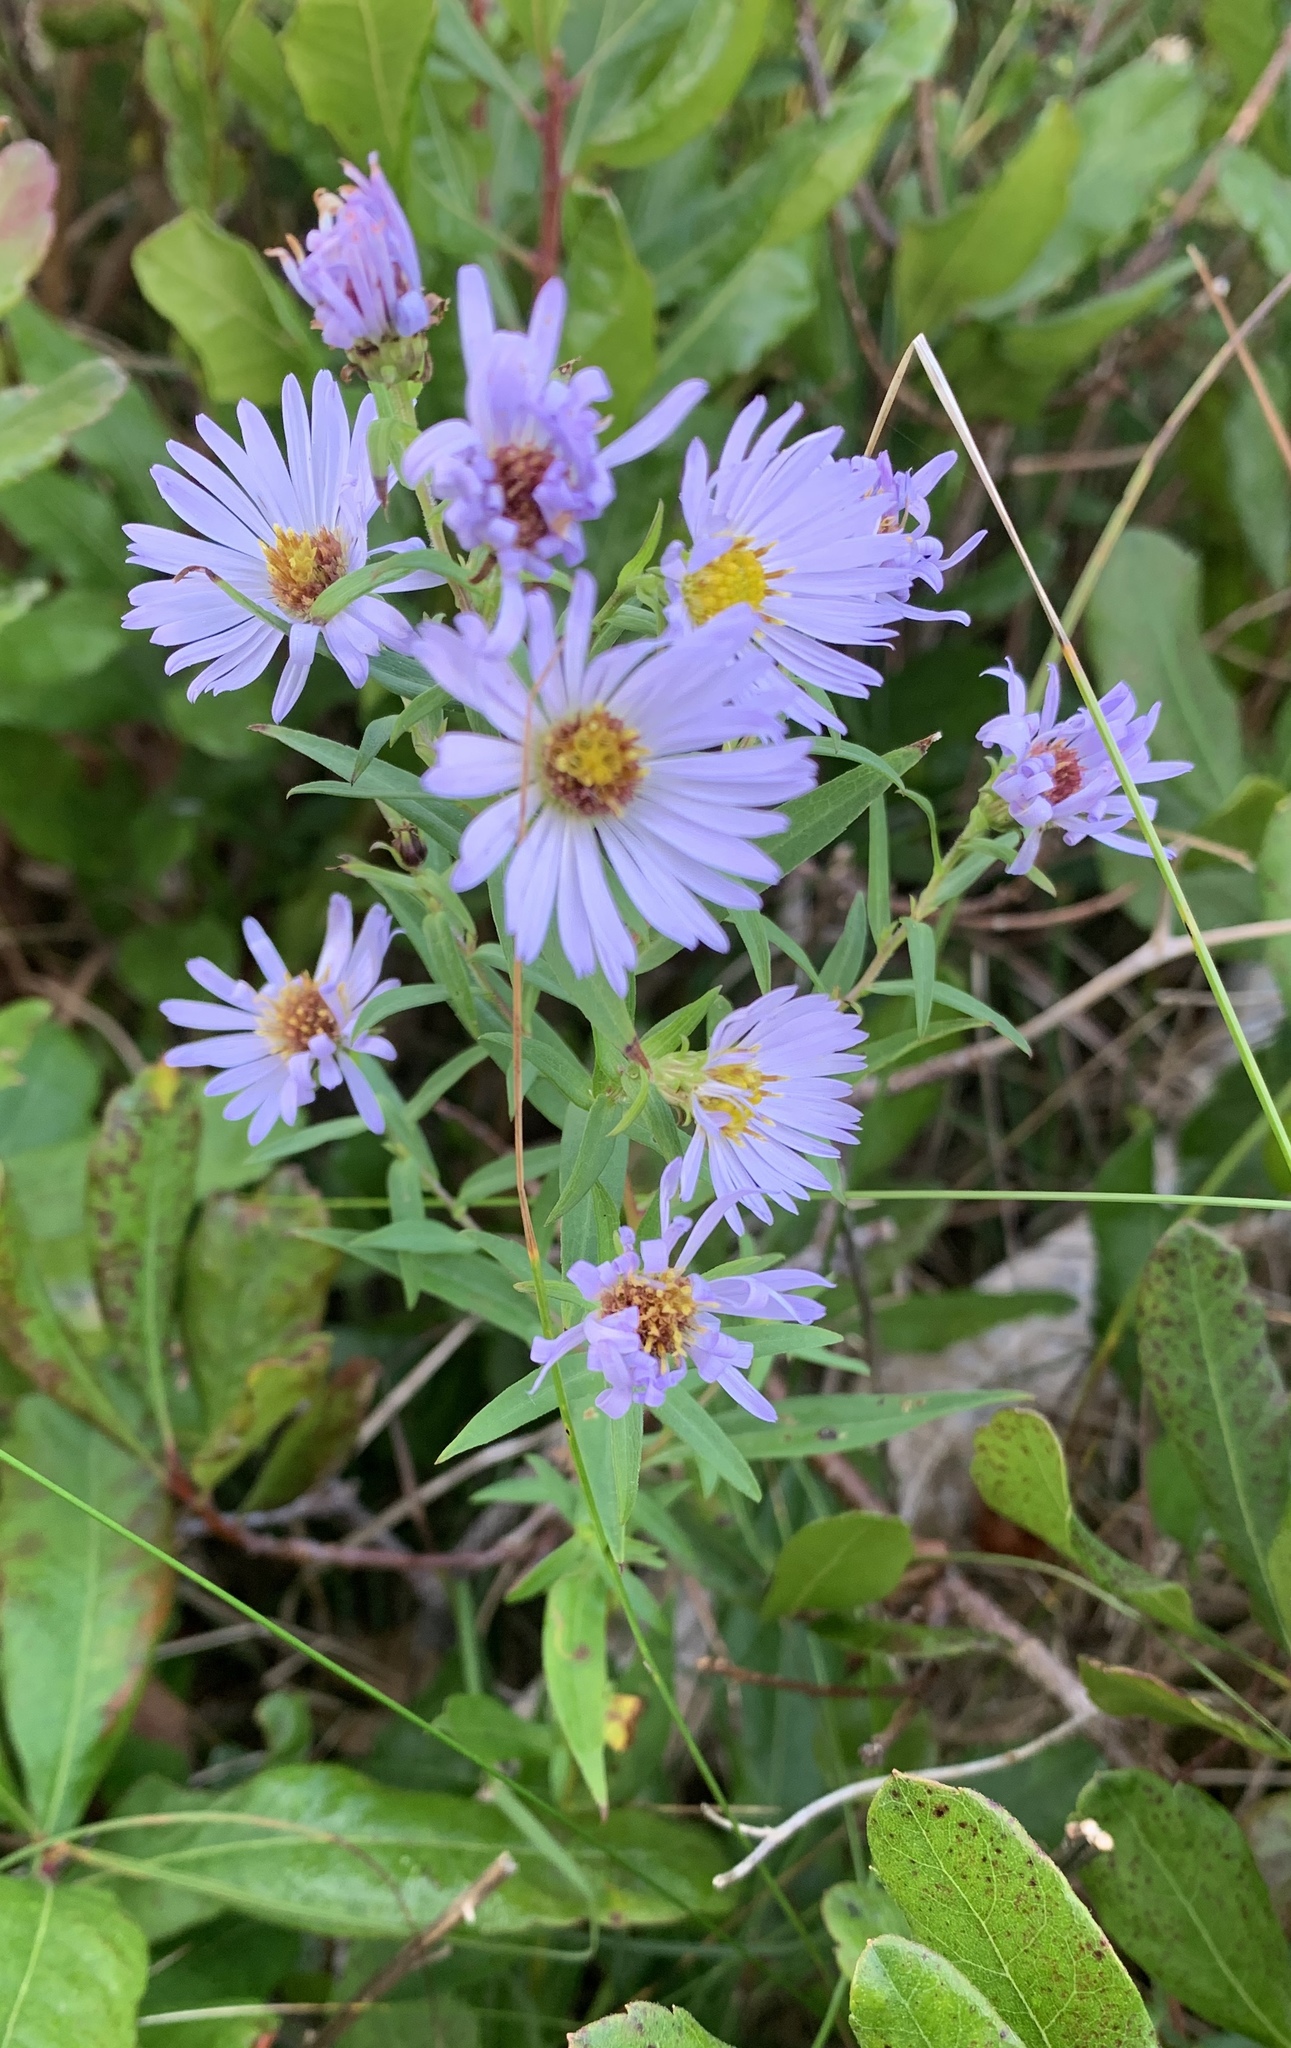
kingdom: Plantae
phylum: Tracheophyta
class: Magnoliopsida
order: Asterales
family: Asteraceae
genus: Symphyotrichum
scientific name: Symphyotrichum novi-belgii
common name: Michaelmas daisy
